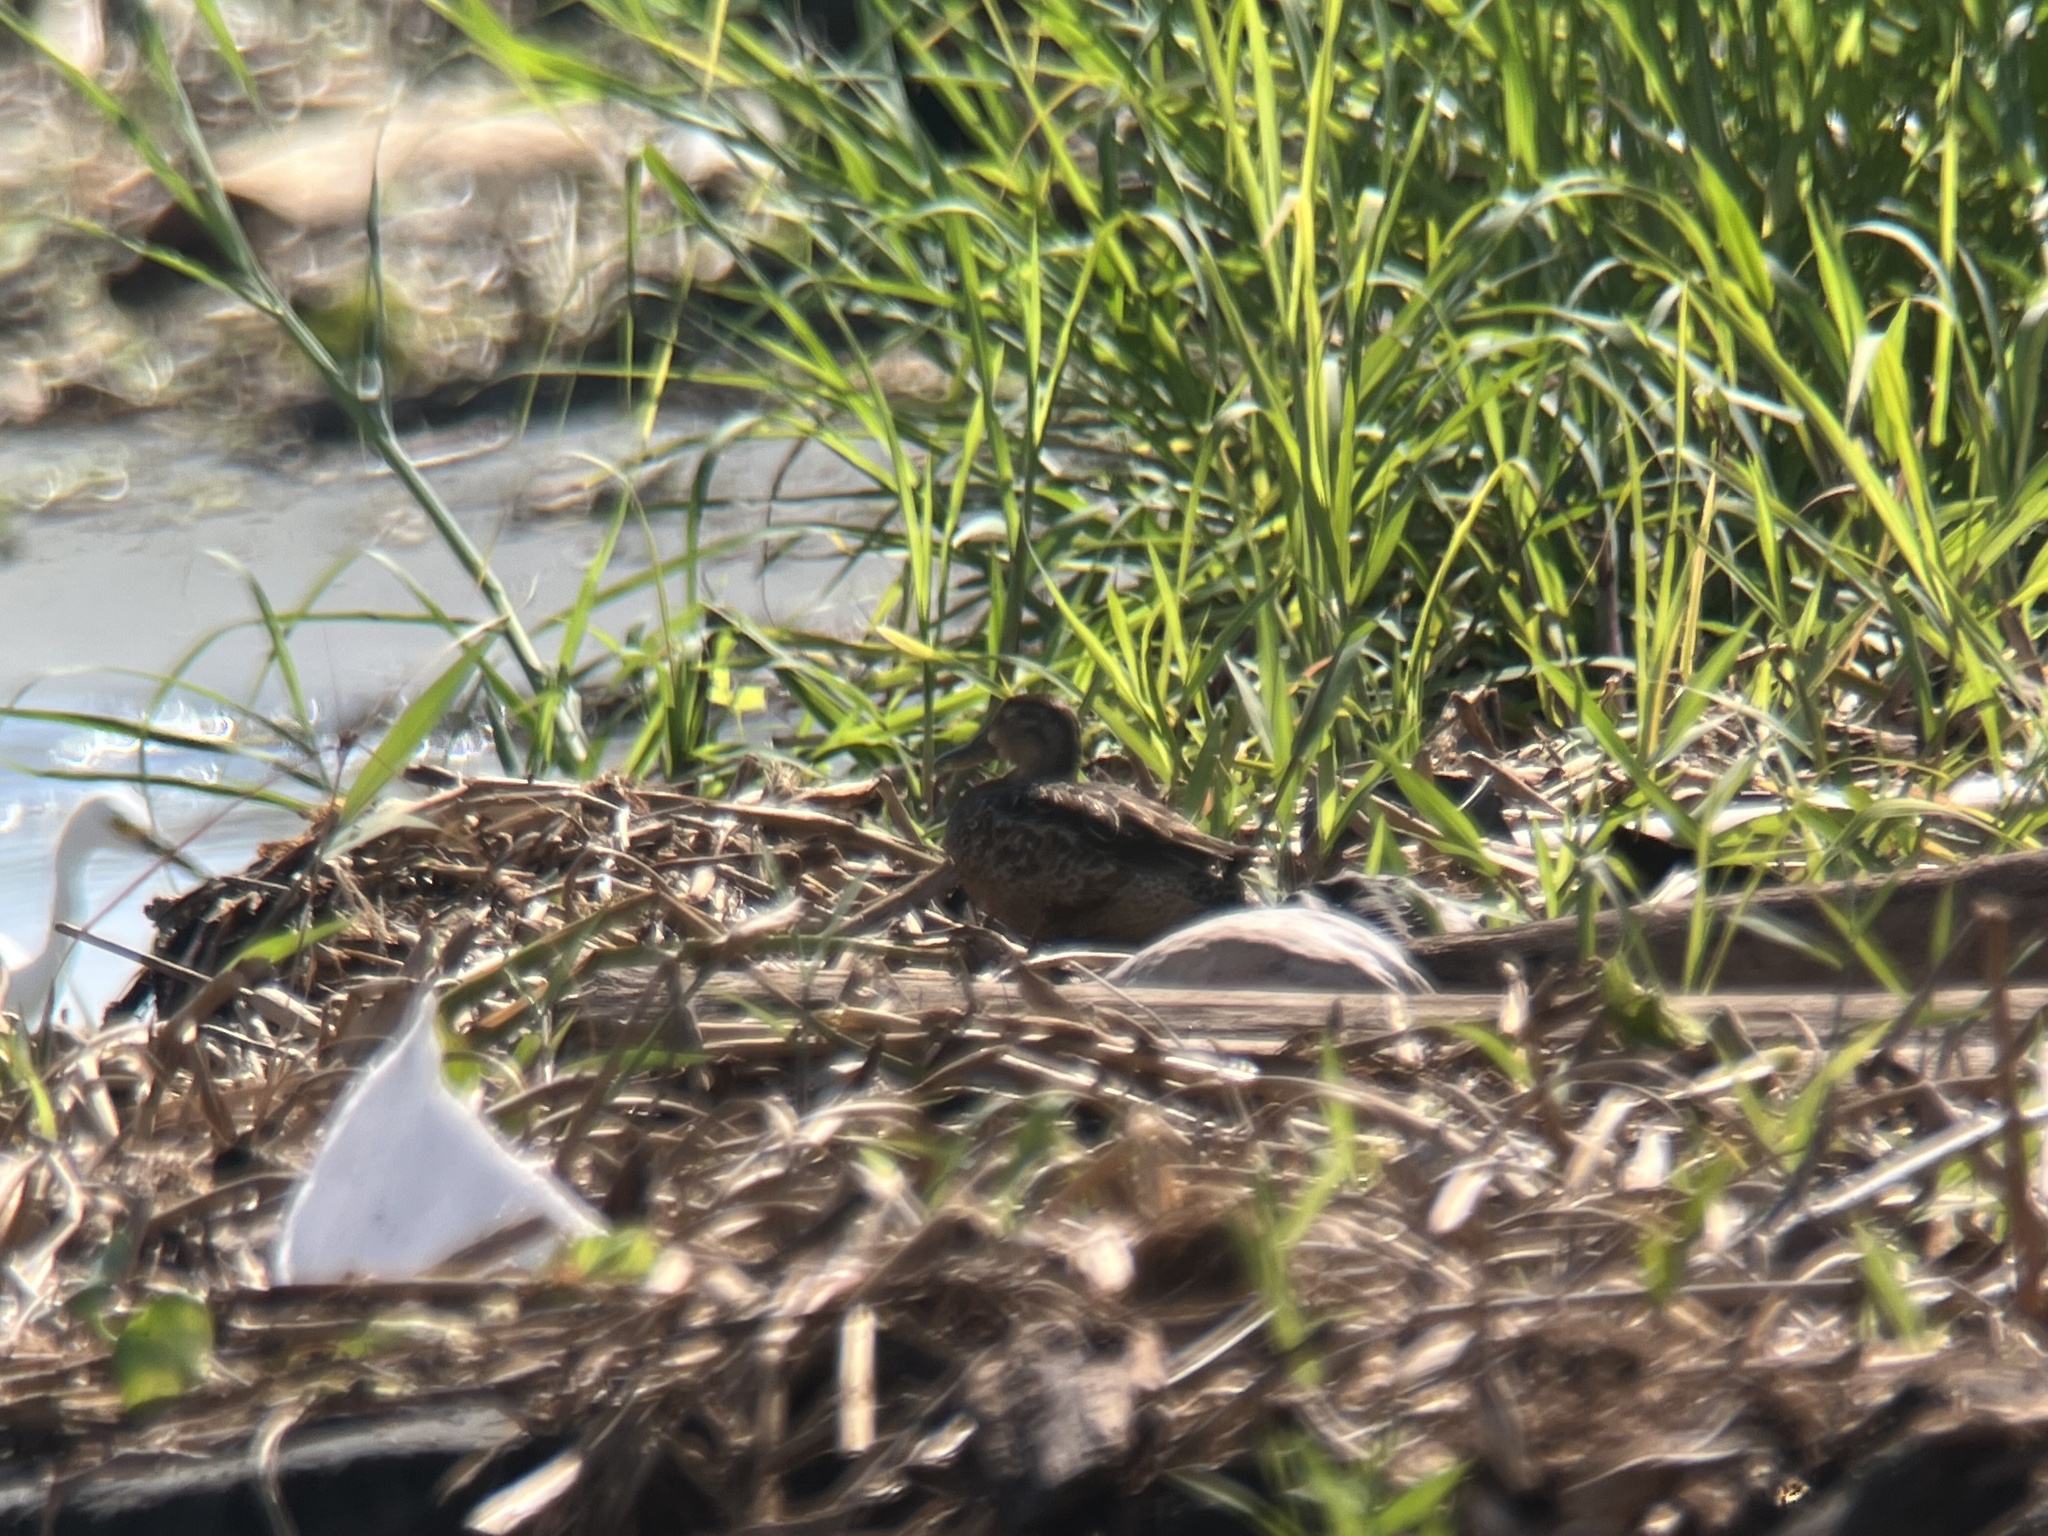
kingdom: Animalia
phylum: Chordata
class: Aves
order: Anseriformes
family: Anatidae
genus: Spatula
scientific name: Spatula discors
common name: Blue-winged teal
